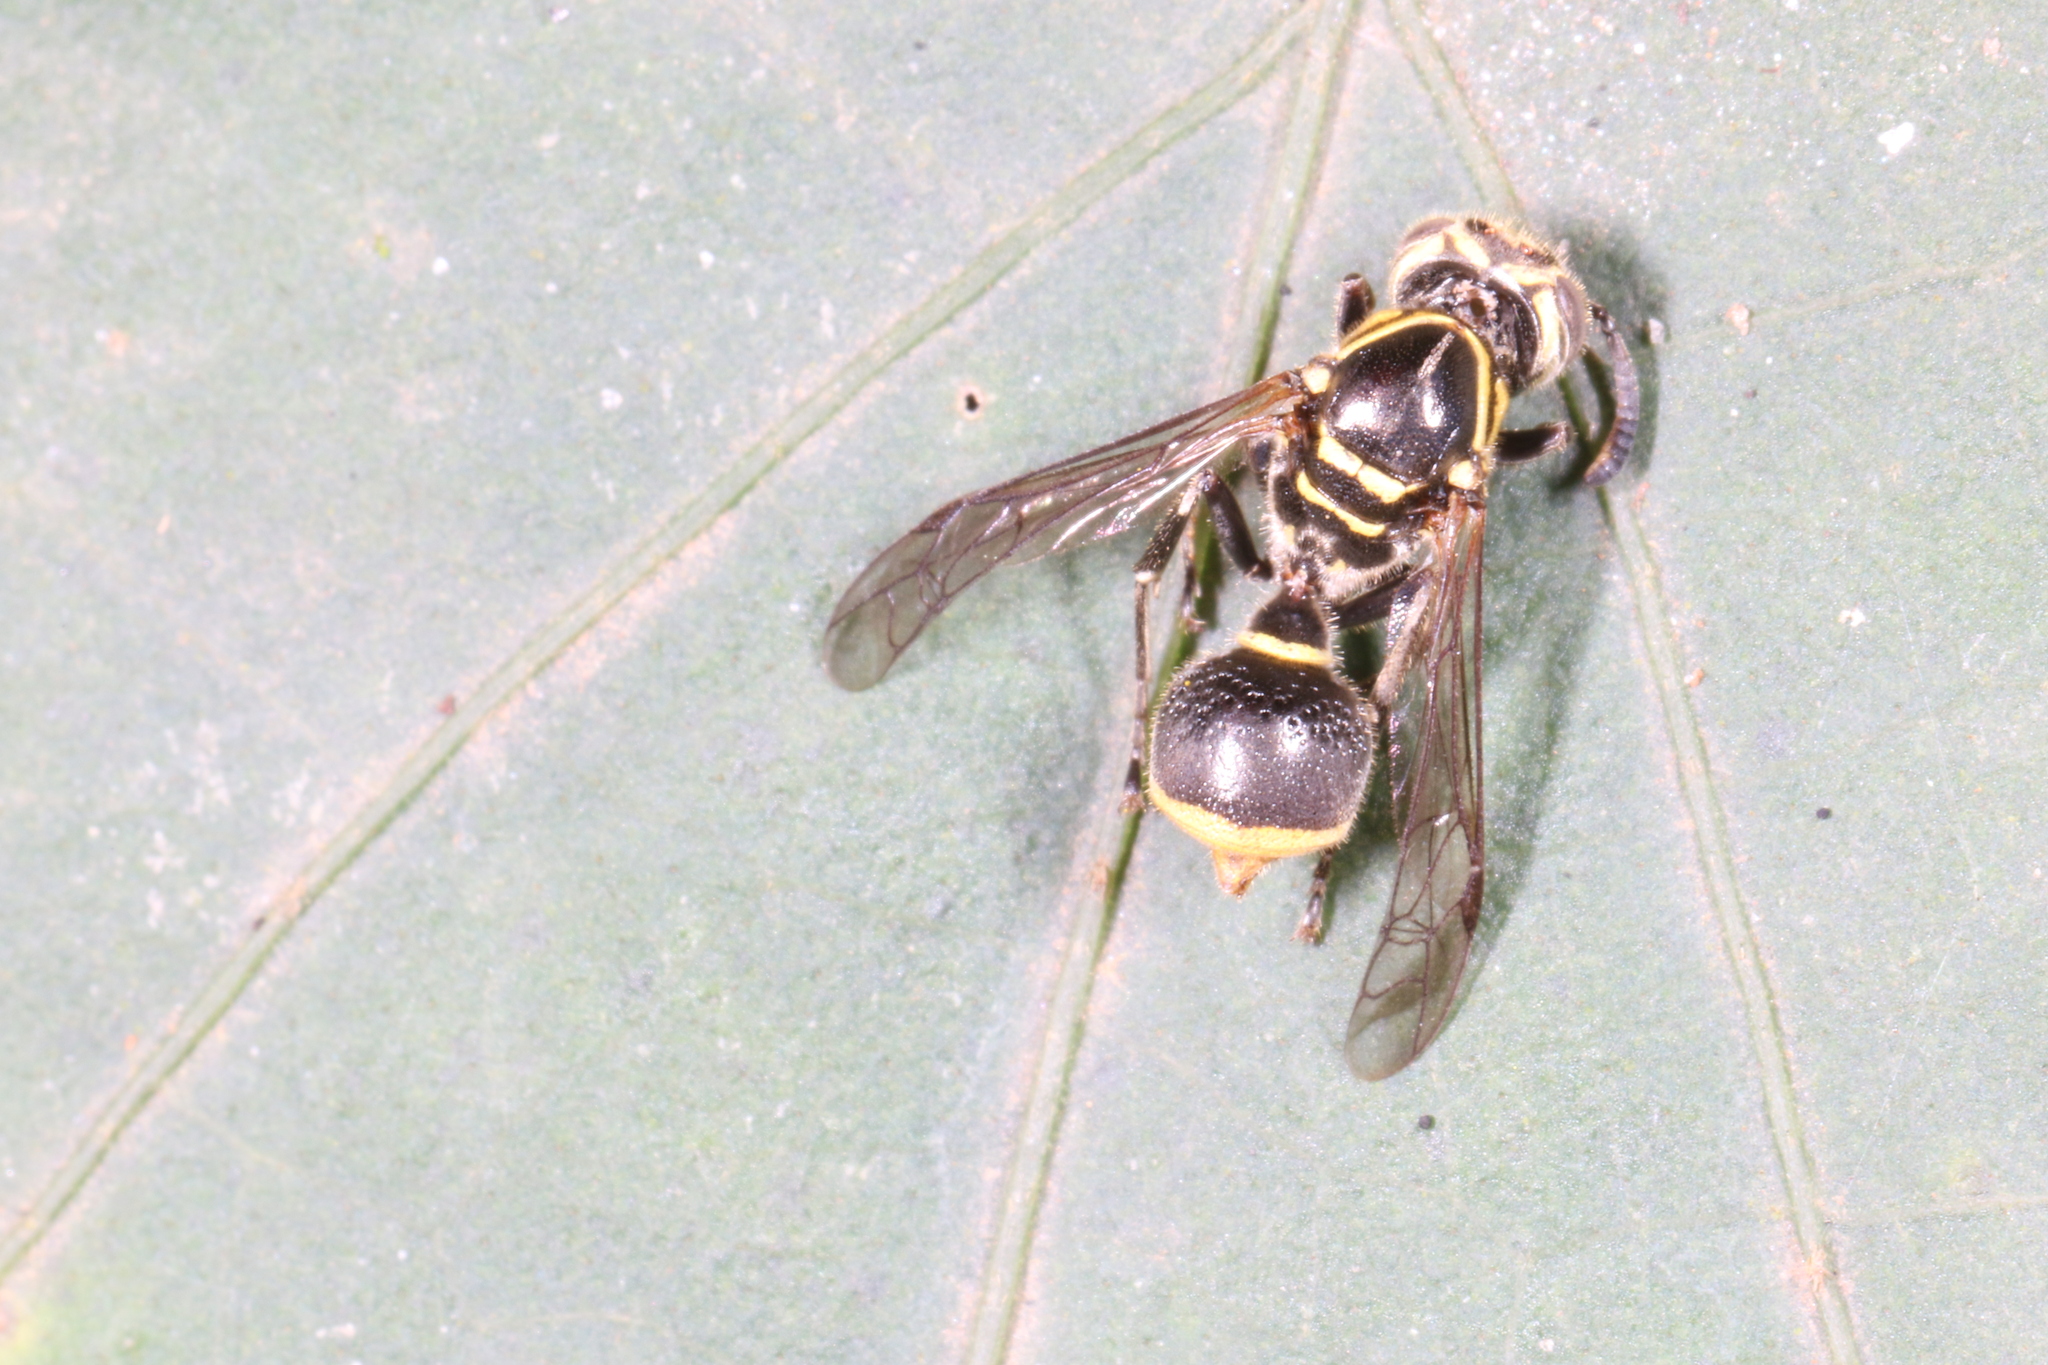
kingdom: Animalia
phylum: Arthropoda
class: Insecta
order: Hymenoptera
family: Vespidae
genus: Protonectarina
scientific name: Protonectarina sylveirae
